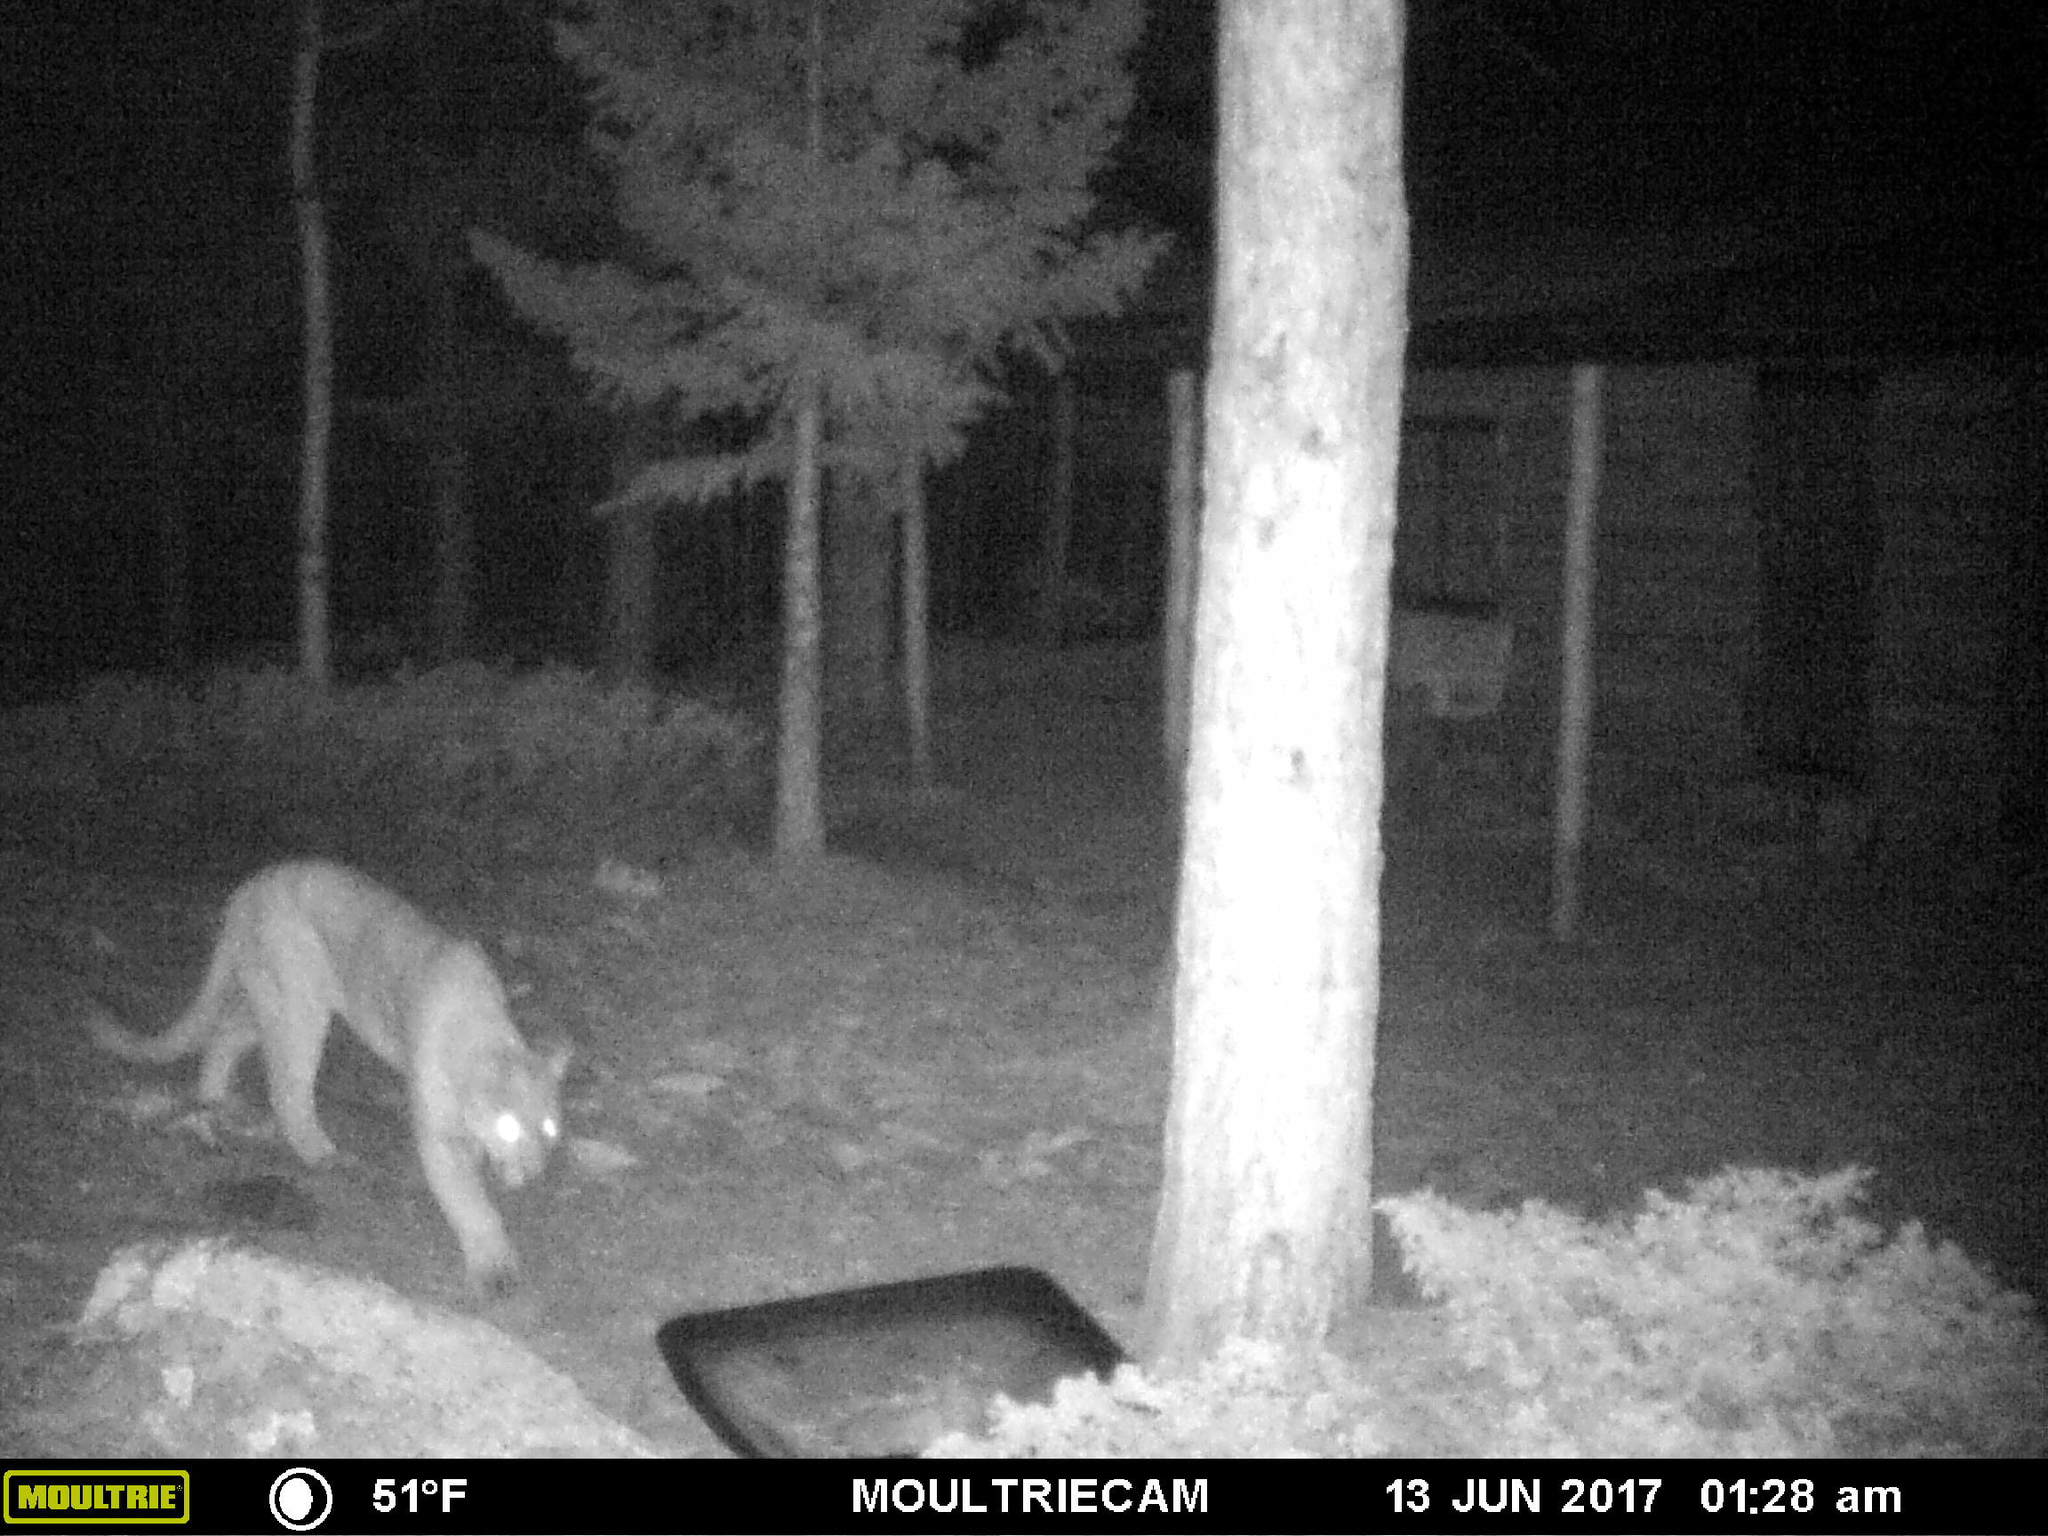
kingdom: Animalia
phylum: Chordata
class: Mammalia
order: Carnivora
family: Felidae
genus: Puma
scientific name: Puma concolor
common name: Puma
